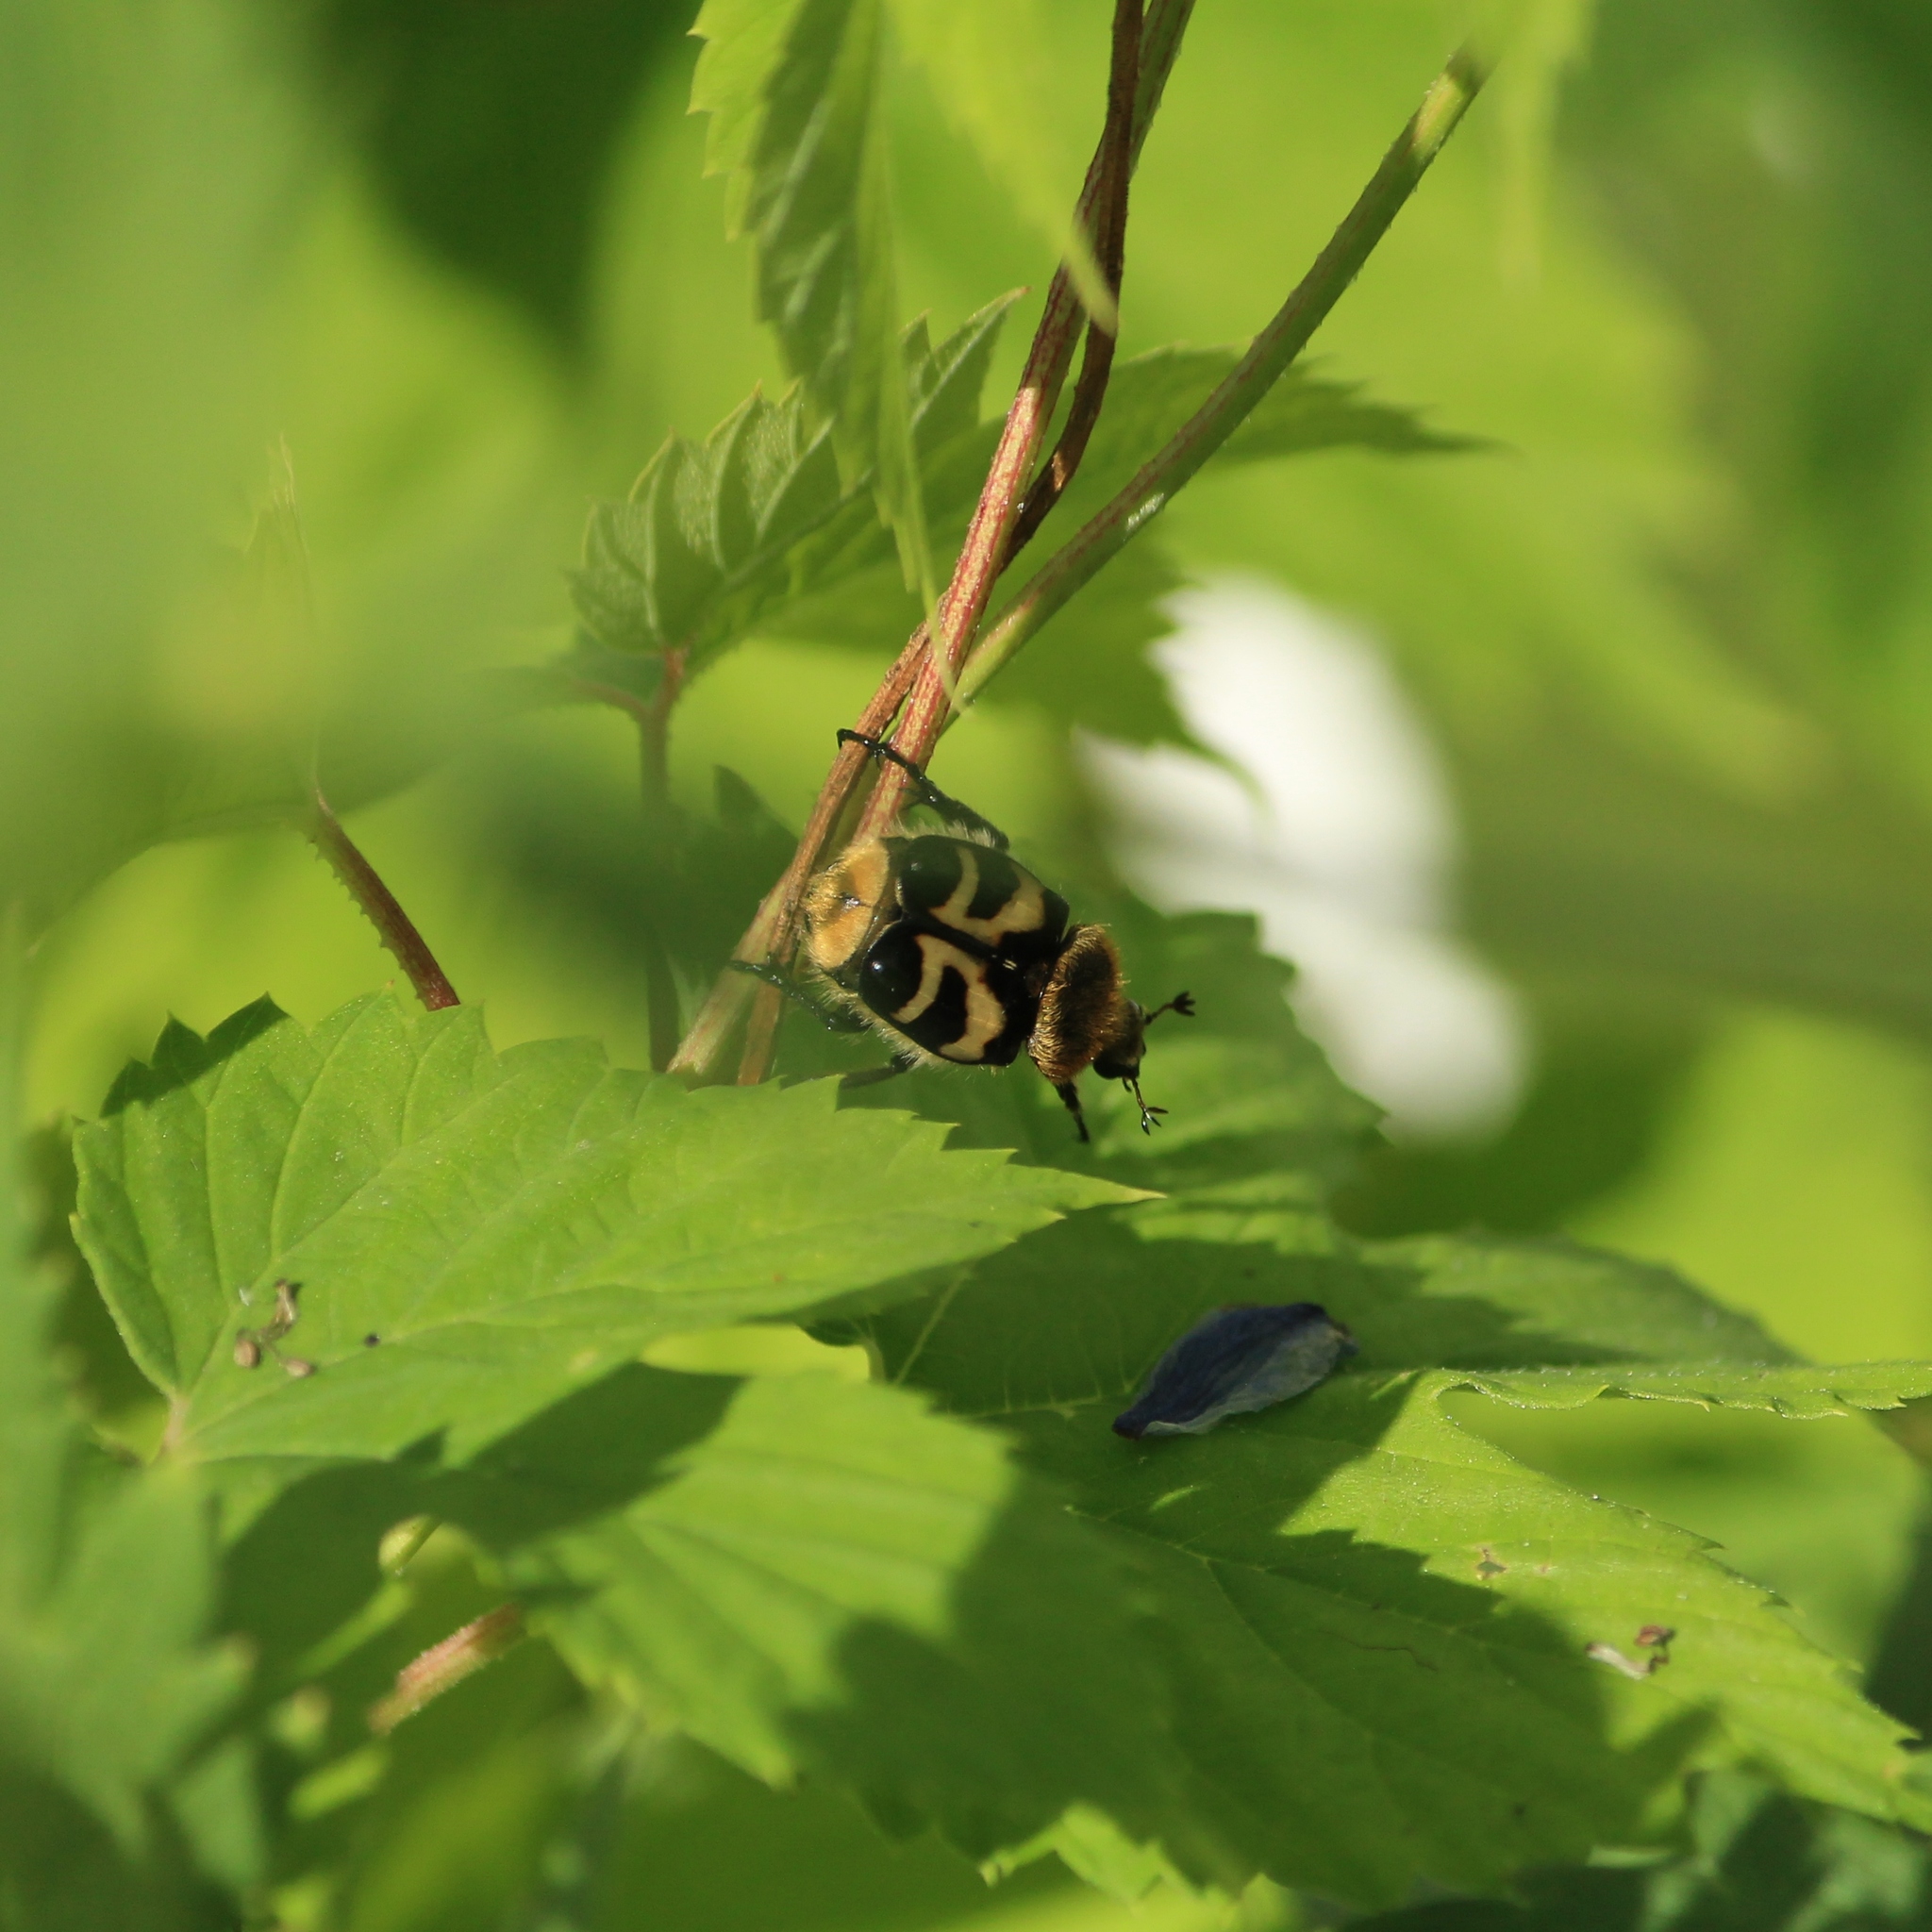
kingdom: Animalia
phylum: Arthropoda
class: Insecta
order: Coleoptera
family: Scarabaeidae
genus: Trichius
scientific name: Trichius fasciatus
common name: Bee beetle
